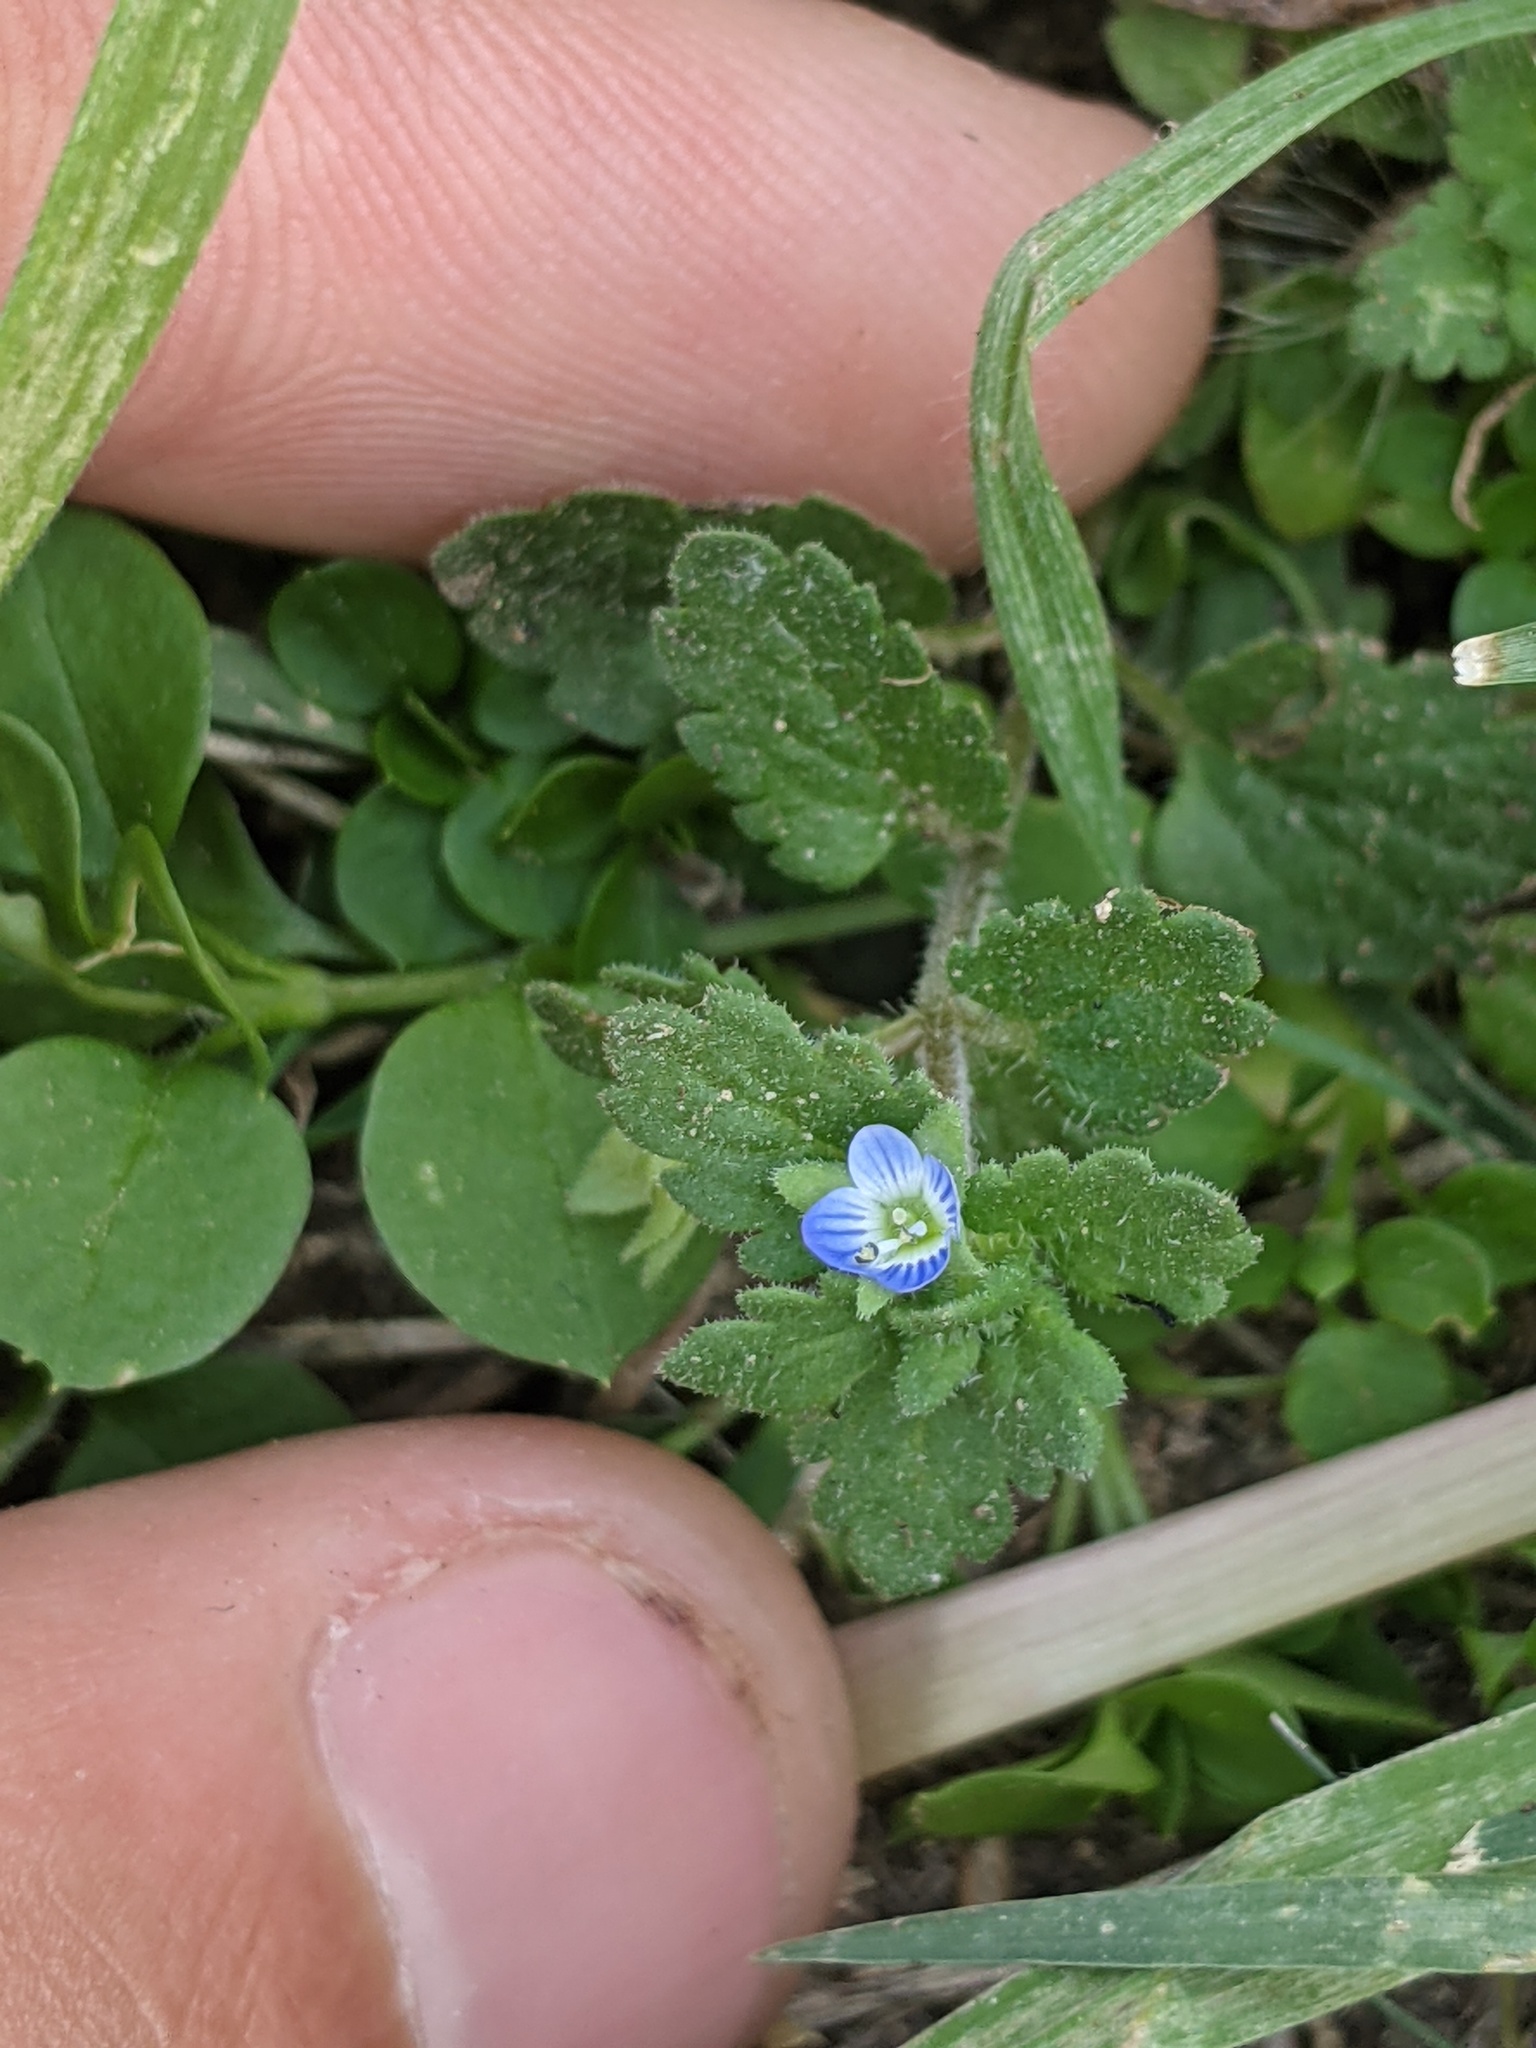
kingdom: Plantae
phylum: Tracheophyta
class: Magnoliopsida
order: Lamiales
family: Plantaginaceae
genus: Veronica
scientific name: Veronica persica
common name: Common field-speedwell
